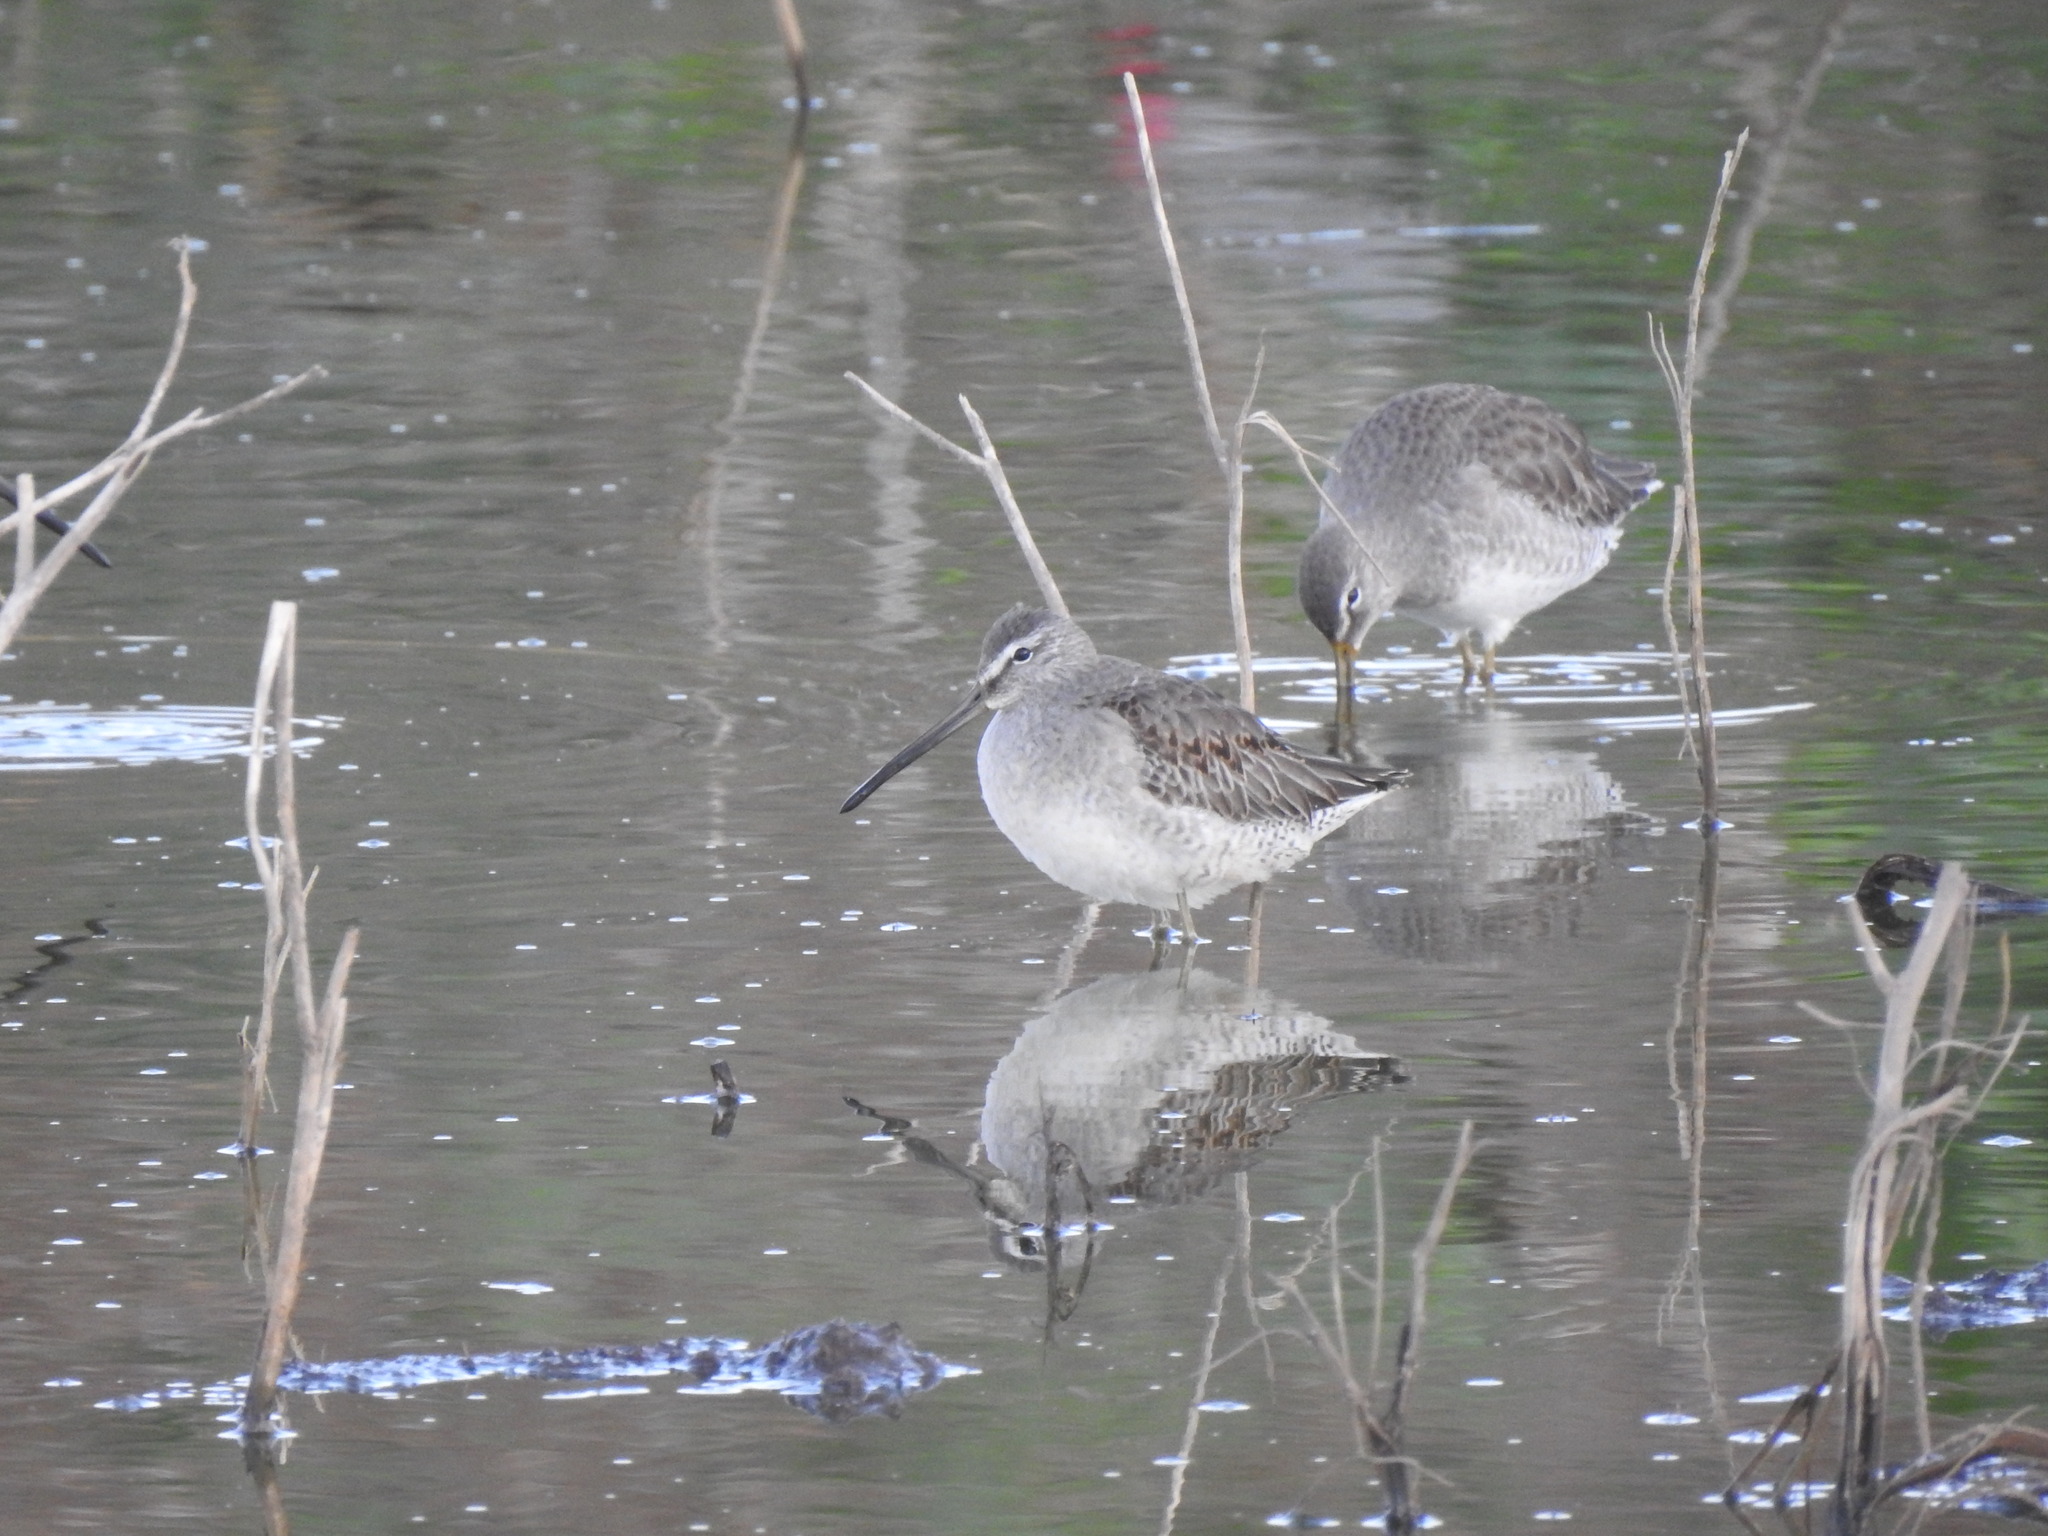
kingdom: Animalia
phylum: Chordata
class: Aves
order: Charadriiformes
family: Scolopacidae
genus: Limnodromus
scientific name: Limnodromus scolopaceus
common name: Long-billed dowitcher
